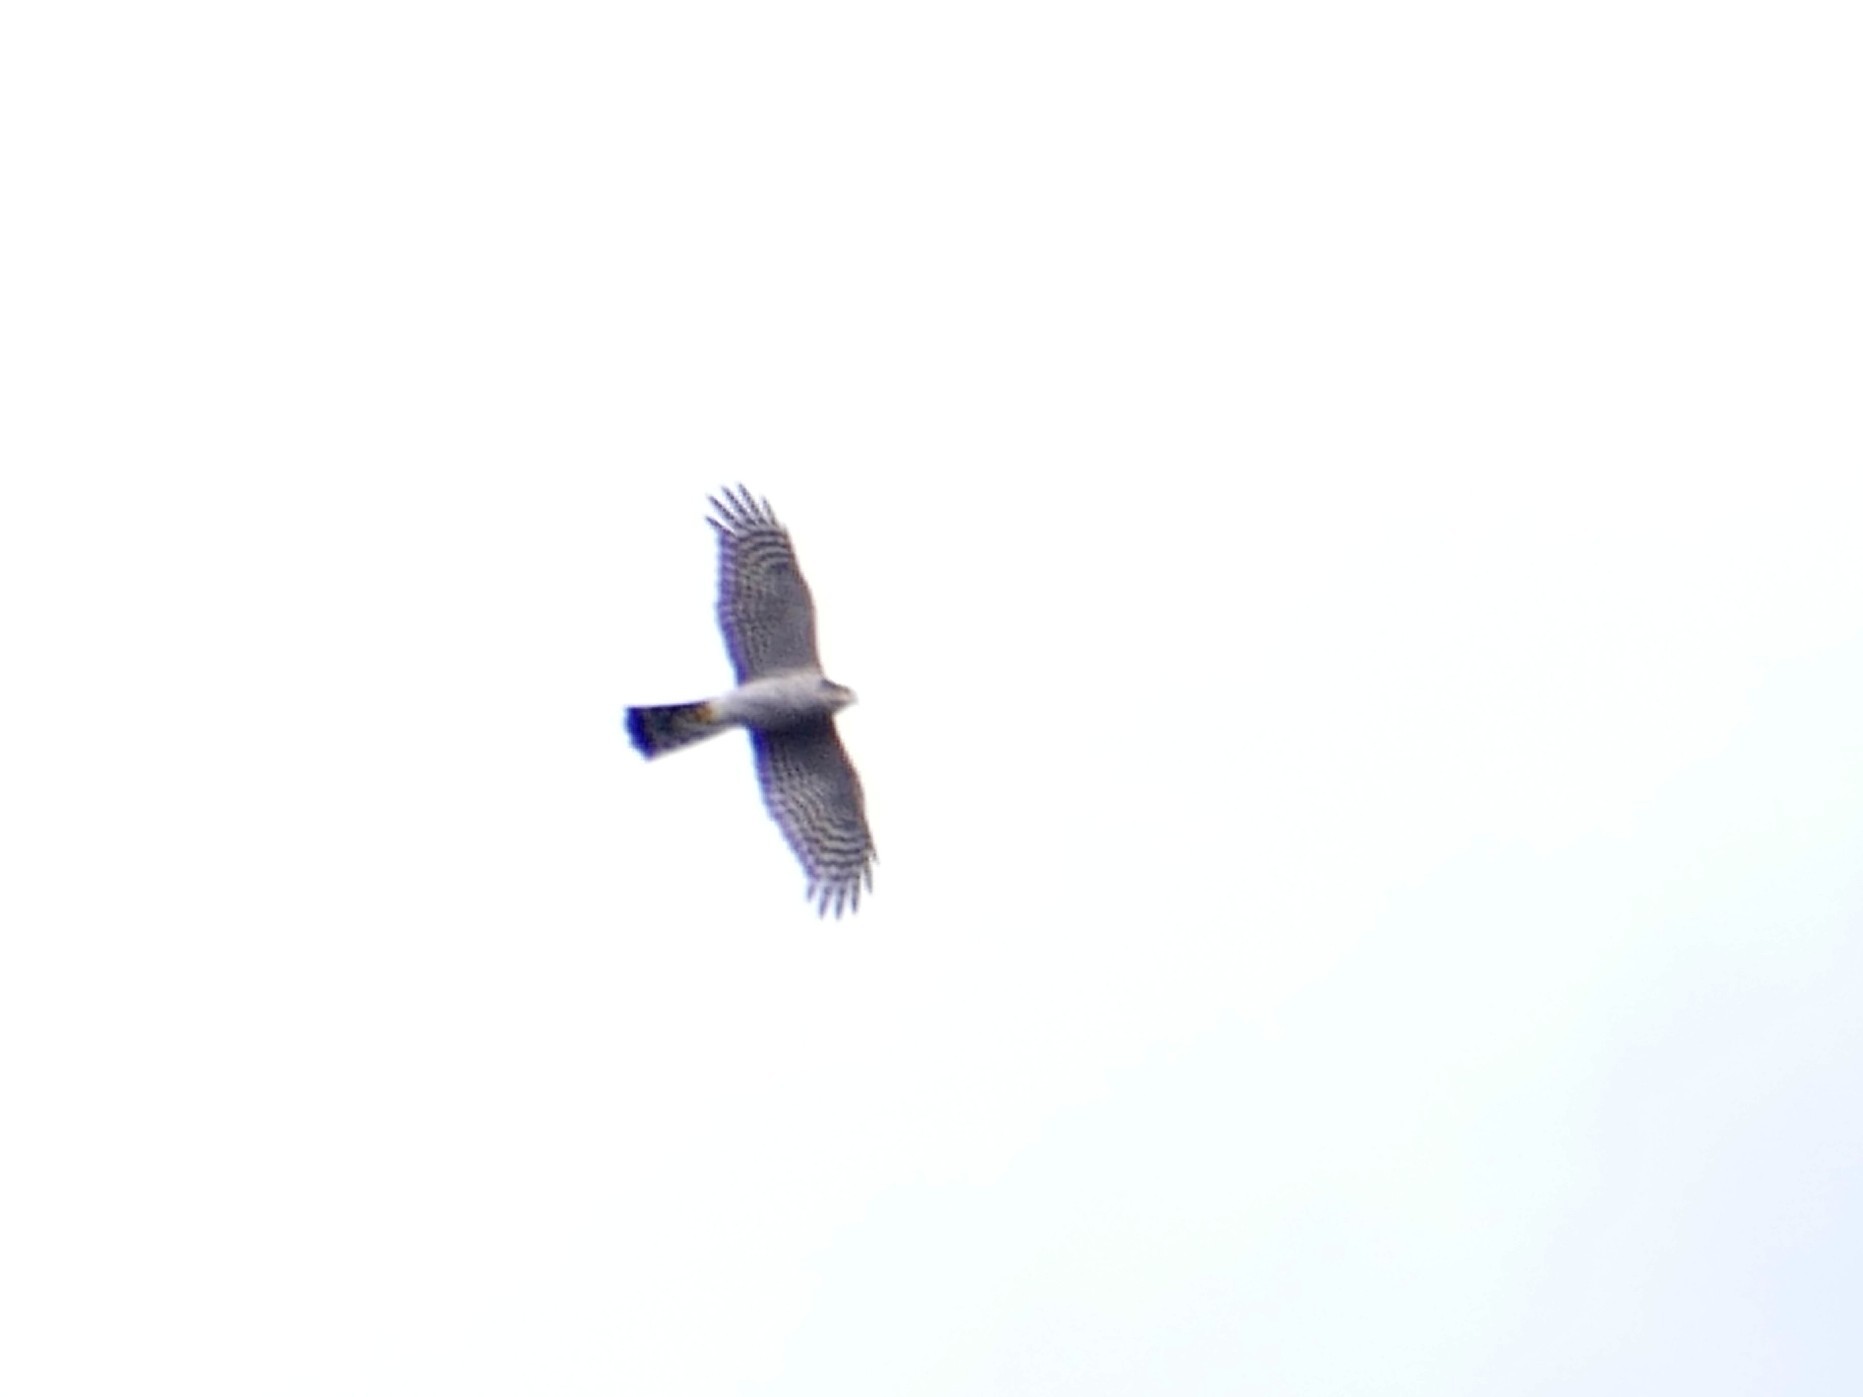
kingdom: Animalia
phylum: Chordata
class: Aves
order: Accipitriformes
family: Accipitridae
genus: Accipiter
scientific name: Accipiter nisus
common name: Eurasian sparrowhawk
